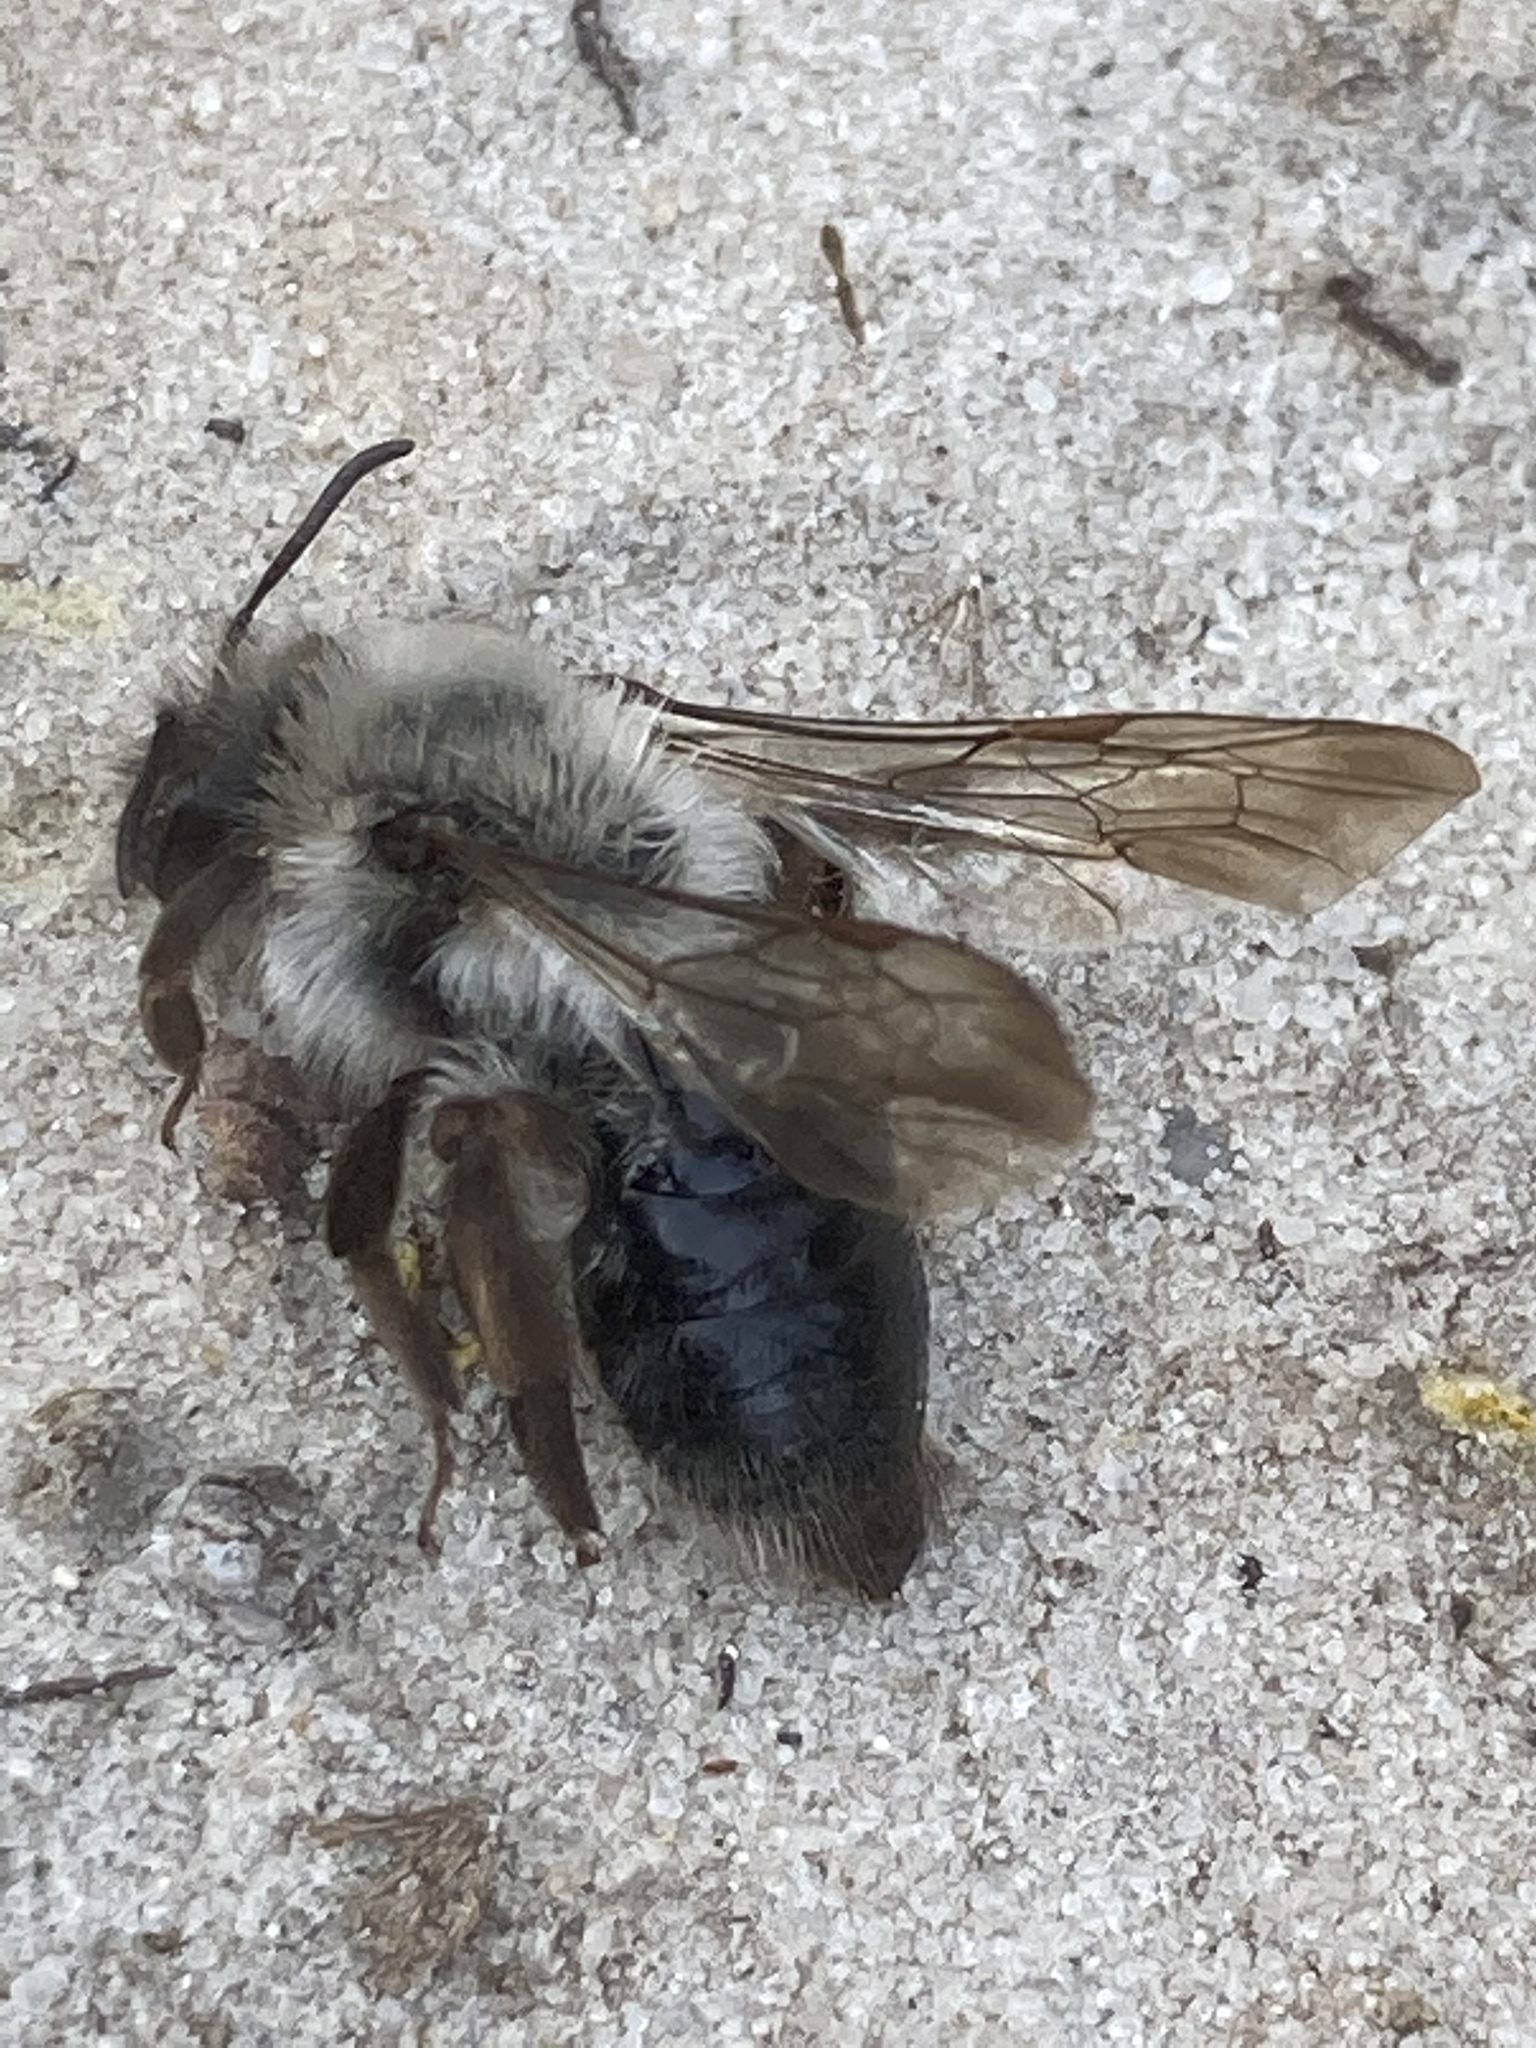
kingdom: Animalia
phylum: Arthropoda
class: Insecta
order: Hymenoptera
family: Andrenidae
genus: Andrena
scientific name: Andrena vaga
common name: Grey-backed mining bee
